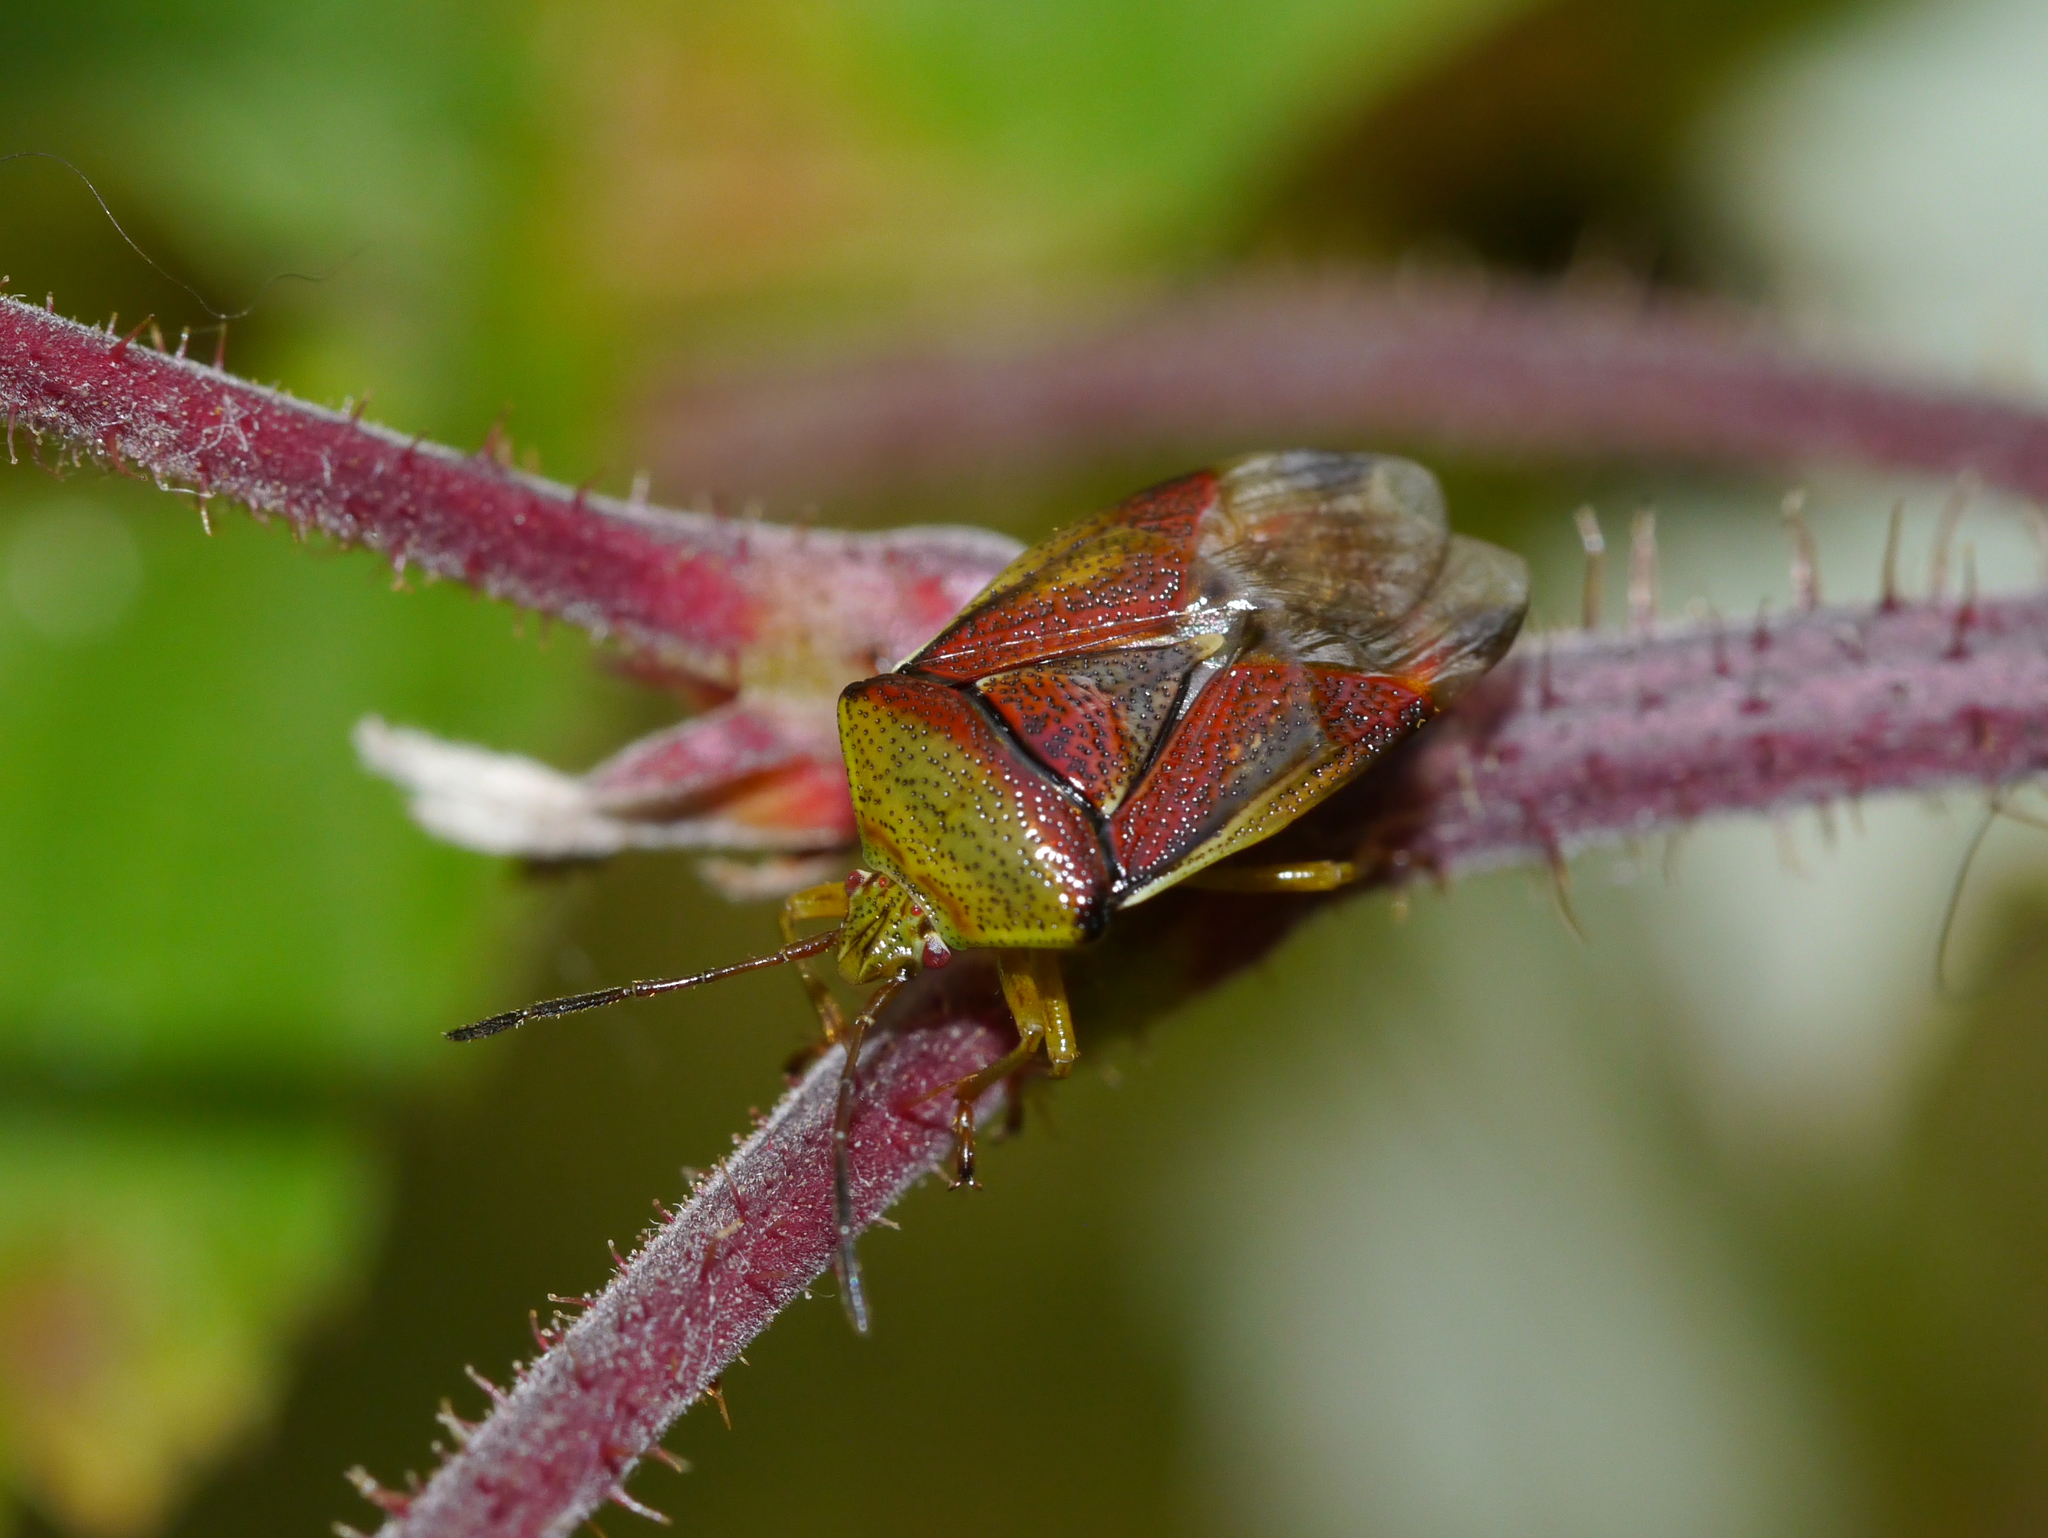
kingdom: Animalia
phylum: Arthropoda
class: Insecta
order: Hemiptera
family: Acanthosomatidae
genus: Elasmostethus
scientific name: Elasmostethus interstinctus
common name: Birch shieldbug
